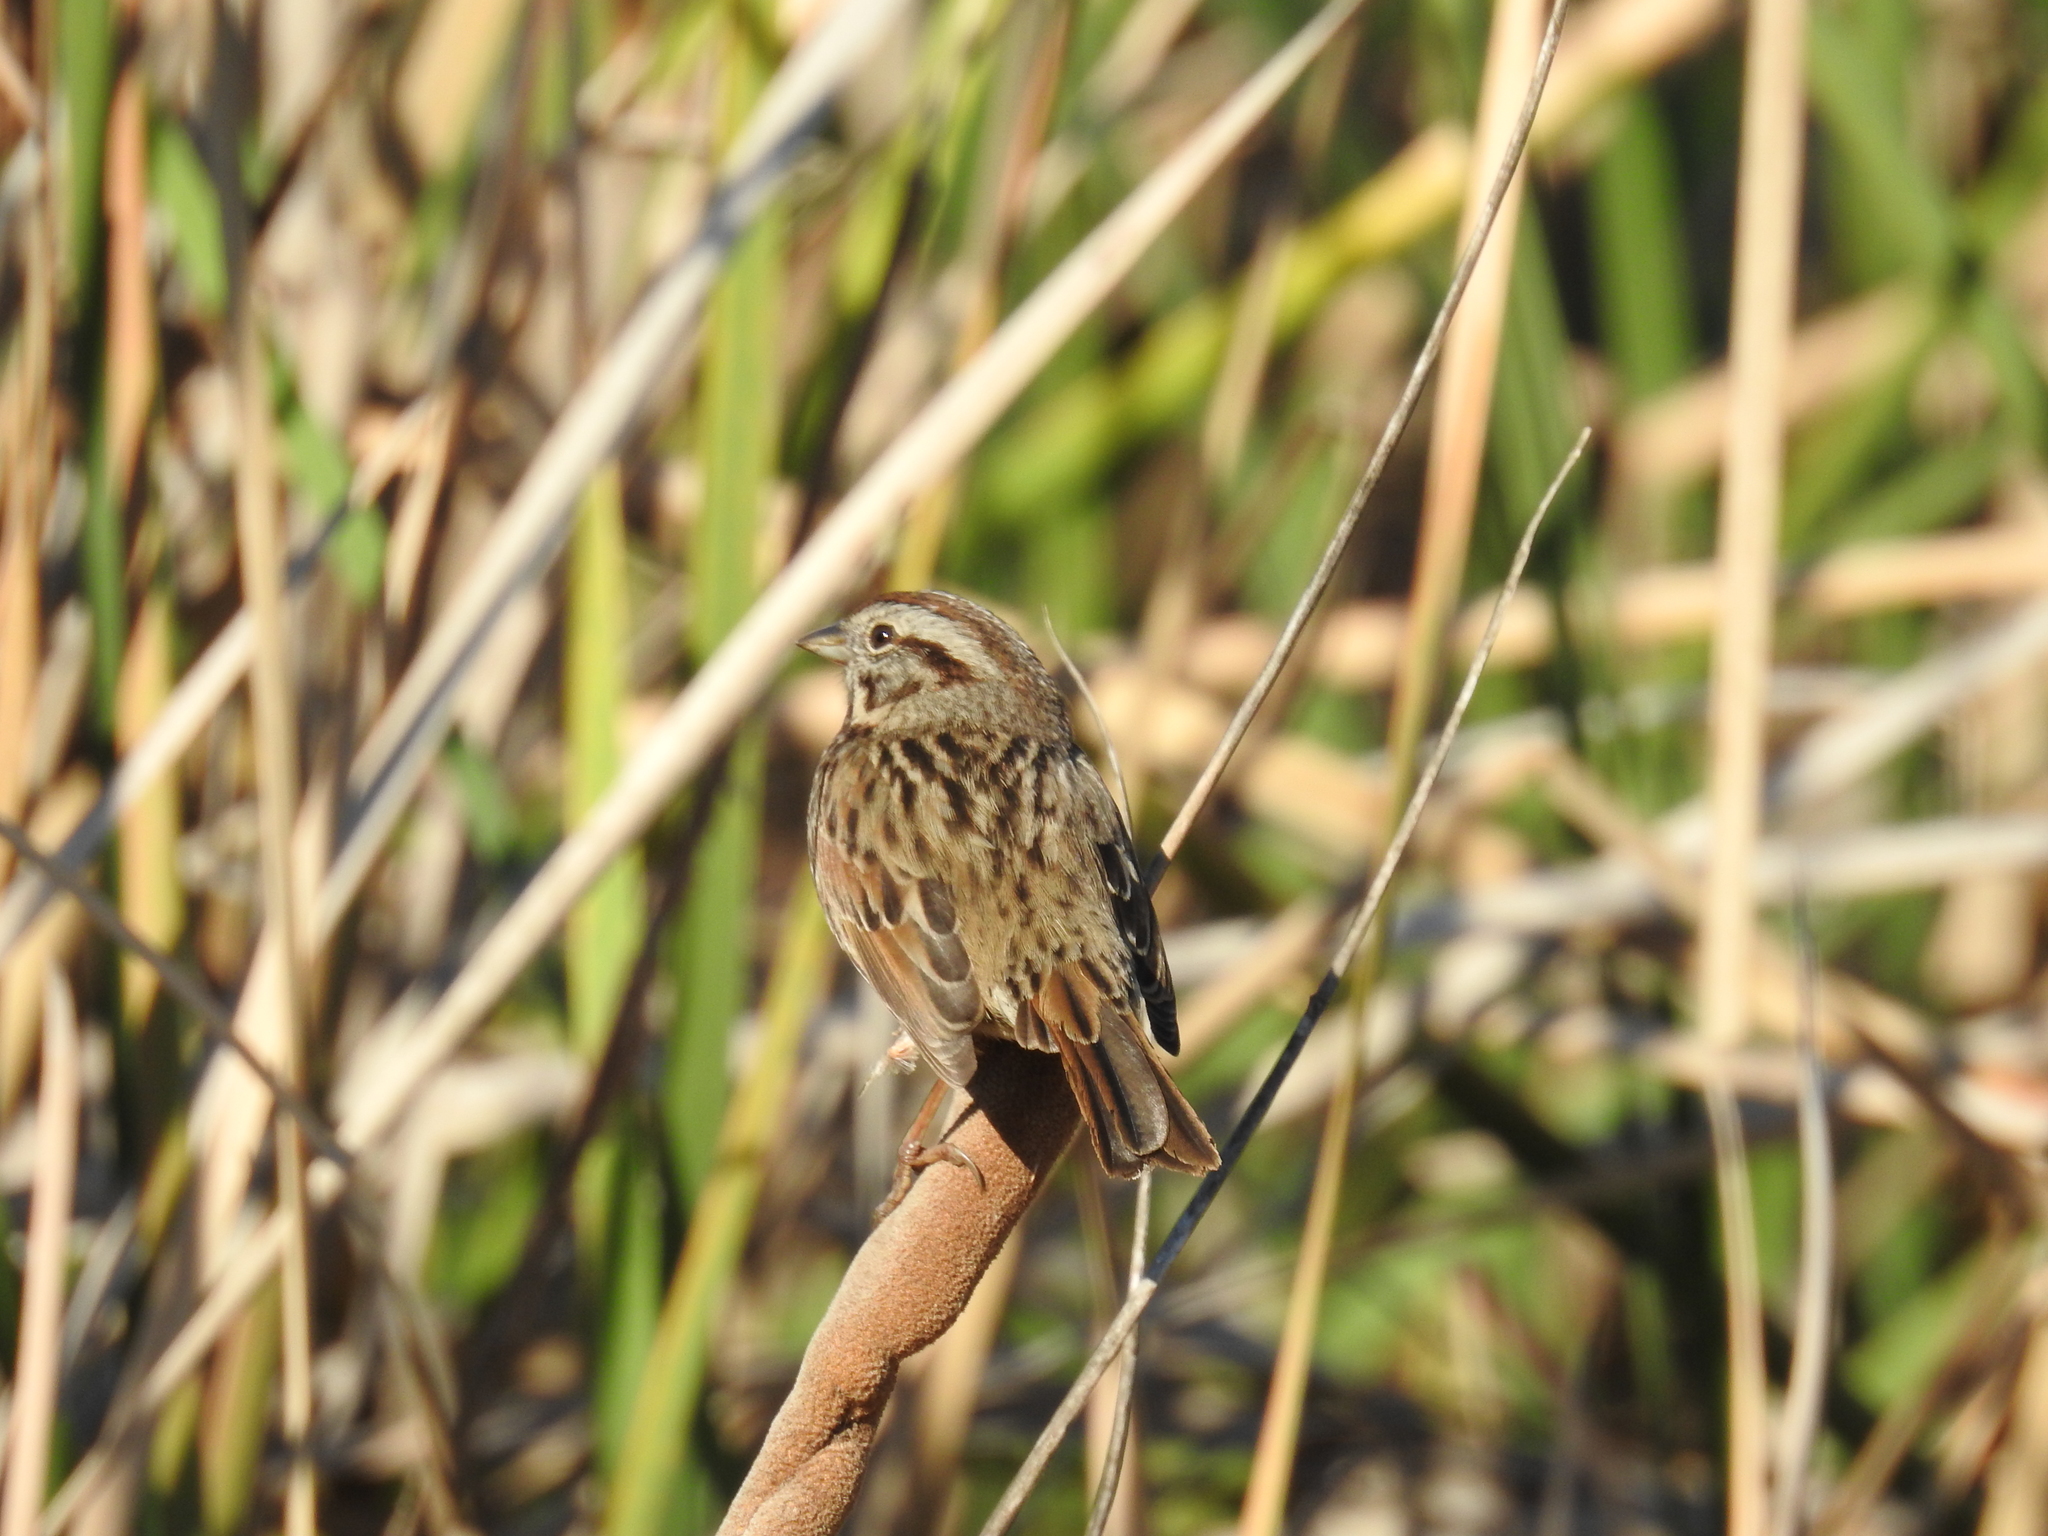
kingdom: Animalia
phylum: Chordata
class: Aves
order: Passeriformes
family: Passerellidae
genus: Melospiza
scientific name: Melospiza melodia
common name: Song sparrow
